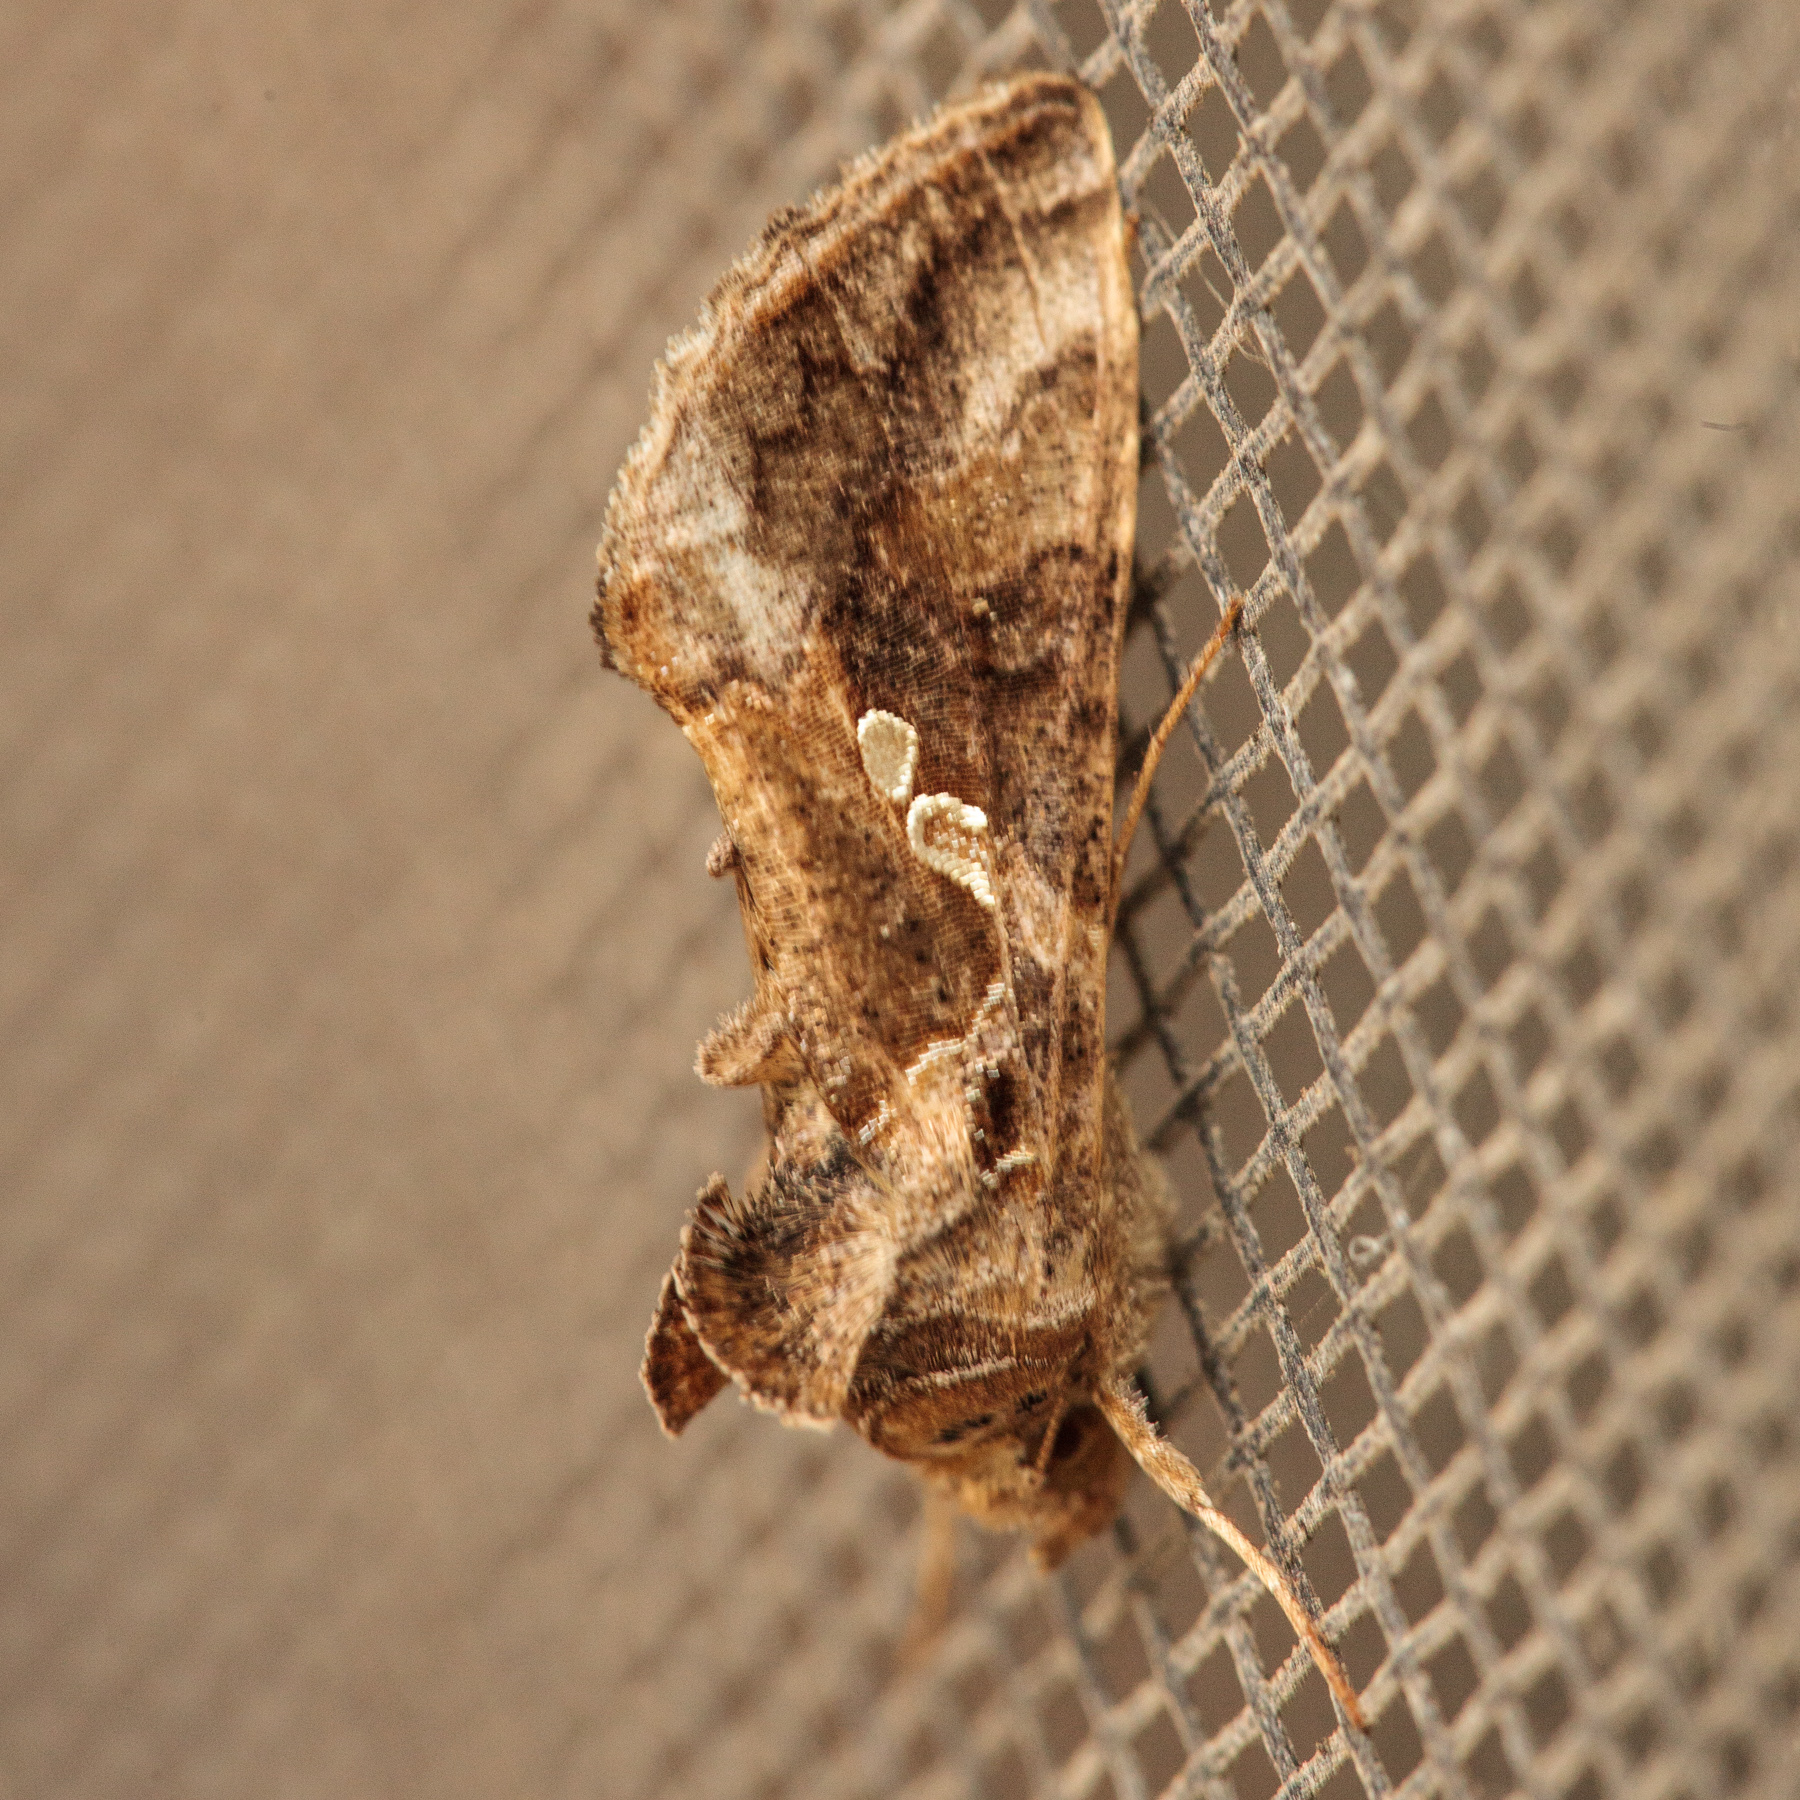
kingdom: Animalia
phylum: Arthropoda
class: Insecta
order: Lepidoptera
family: Noctuidae
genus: Chrysodeixis
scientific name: Chrysodeixis includens
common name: Cutworm moth
